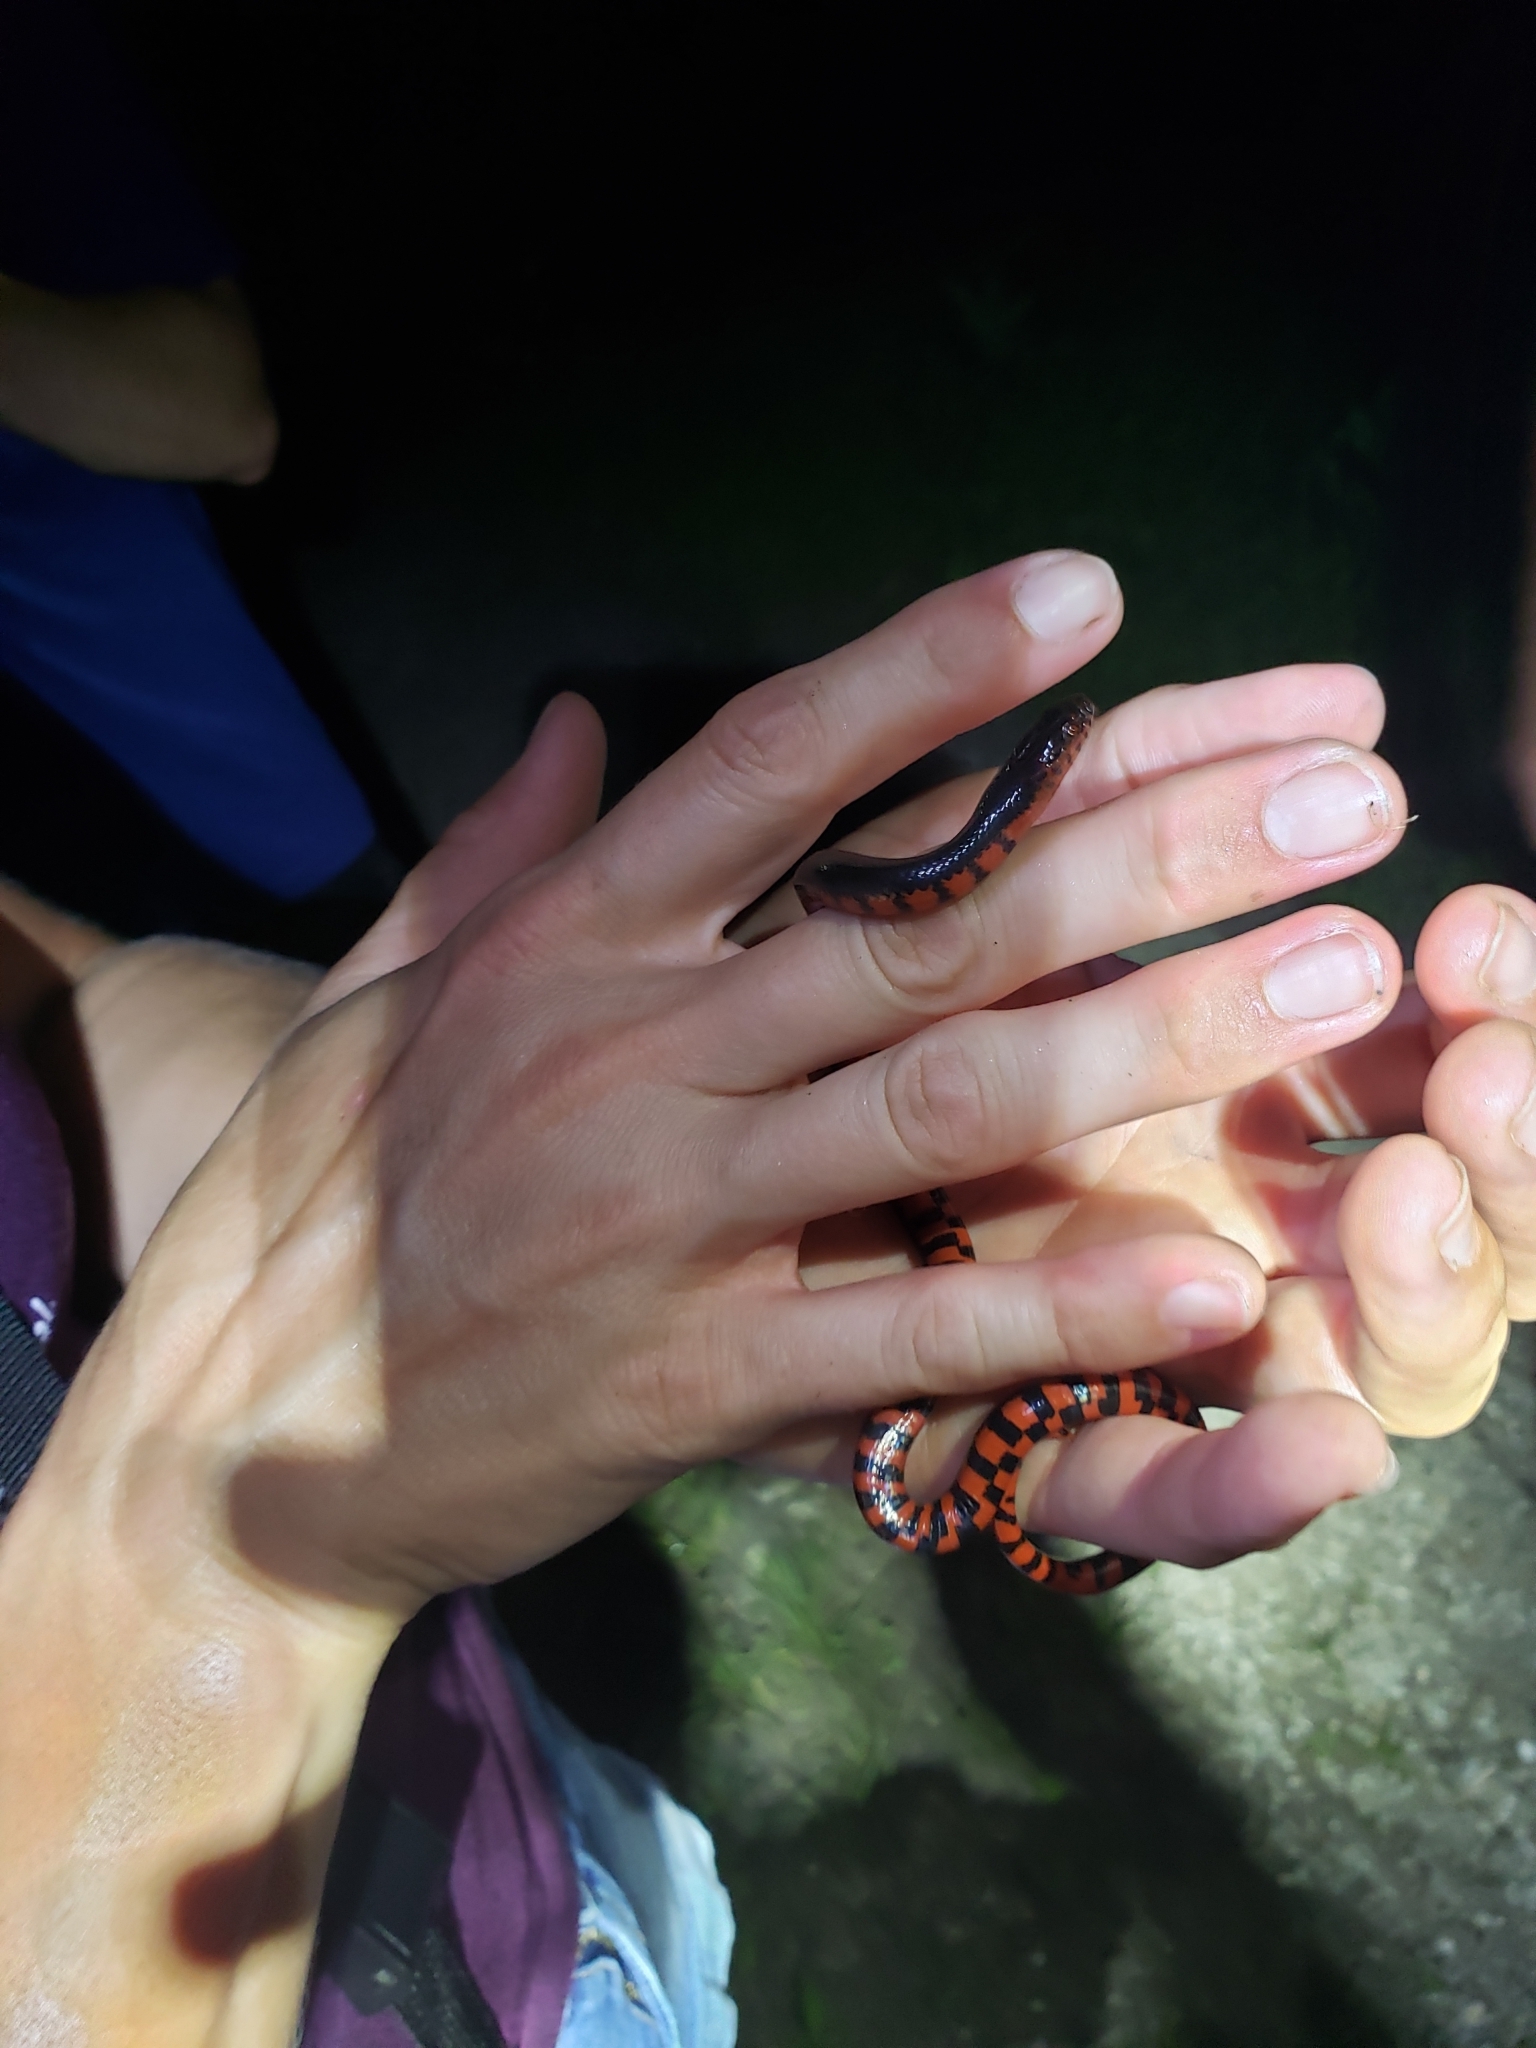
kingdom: Animalia
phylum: Chordata
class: Squamata
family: Colubridae
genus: Farancia
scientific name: Farancia abacura
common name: Mud snake
